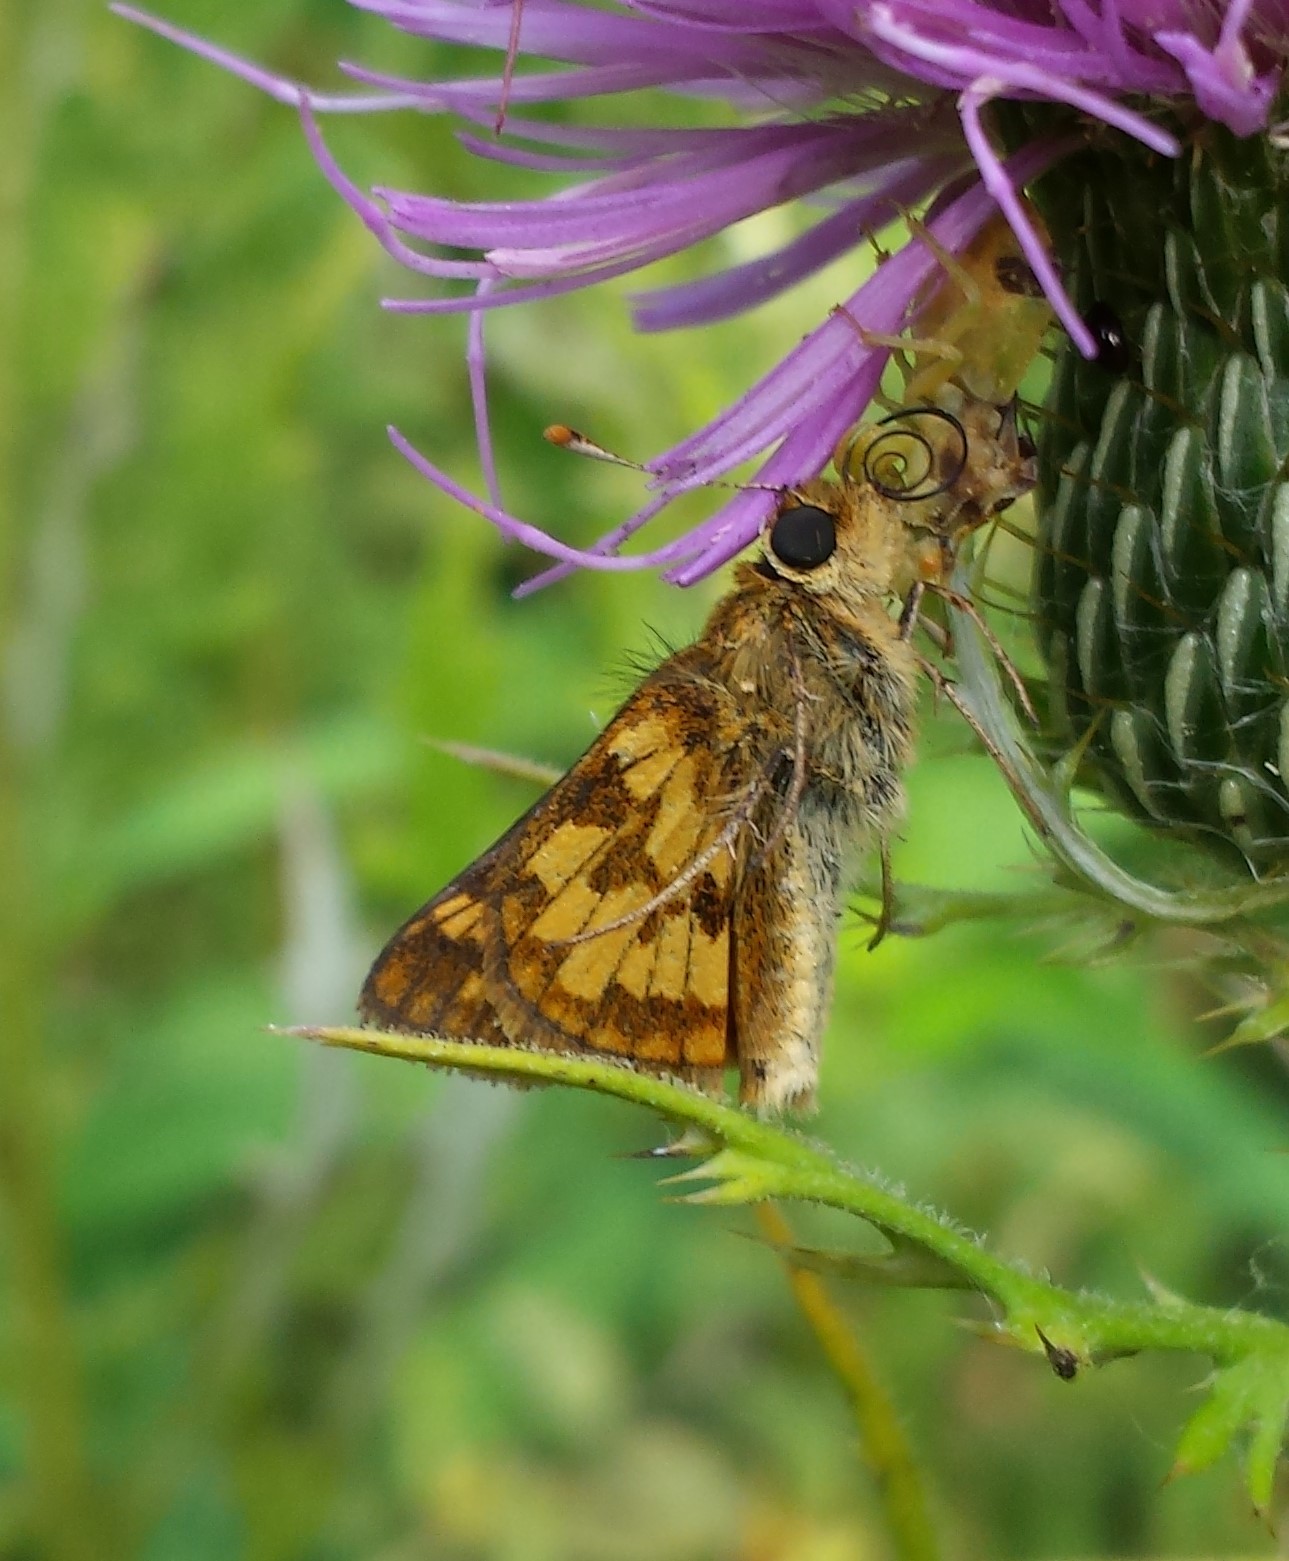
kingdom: Animalia
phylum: Arthropoda
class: Insecta
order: Lepidoptera
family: Hesperiidae
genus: Polites
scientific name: Polites coras
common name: Peck's skipper
